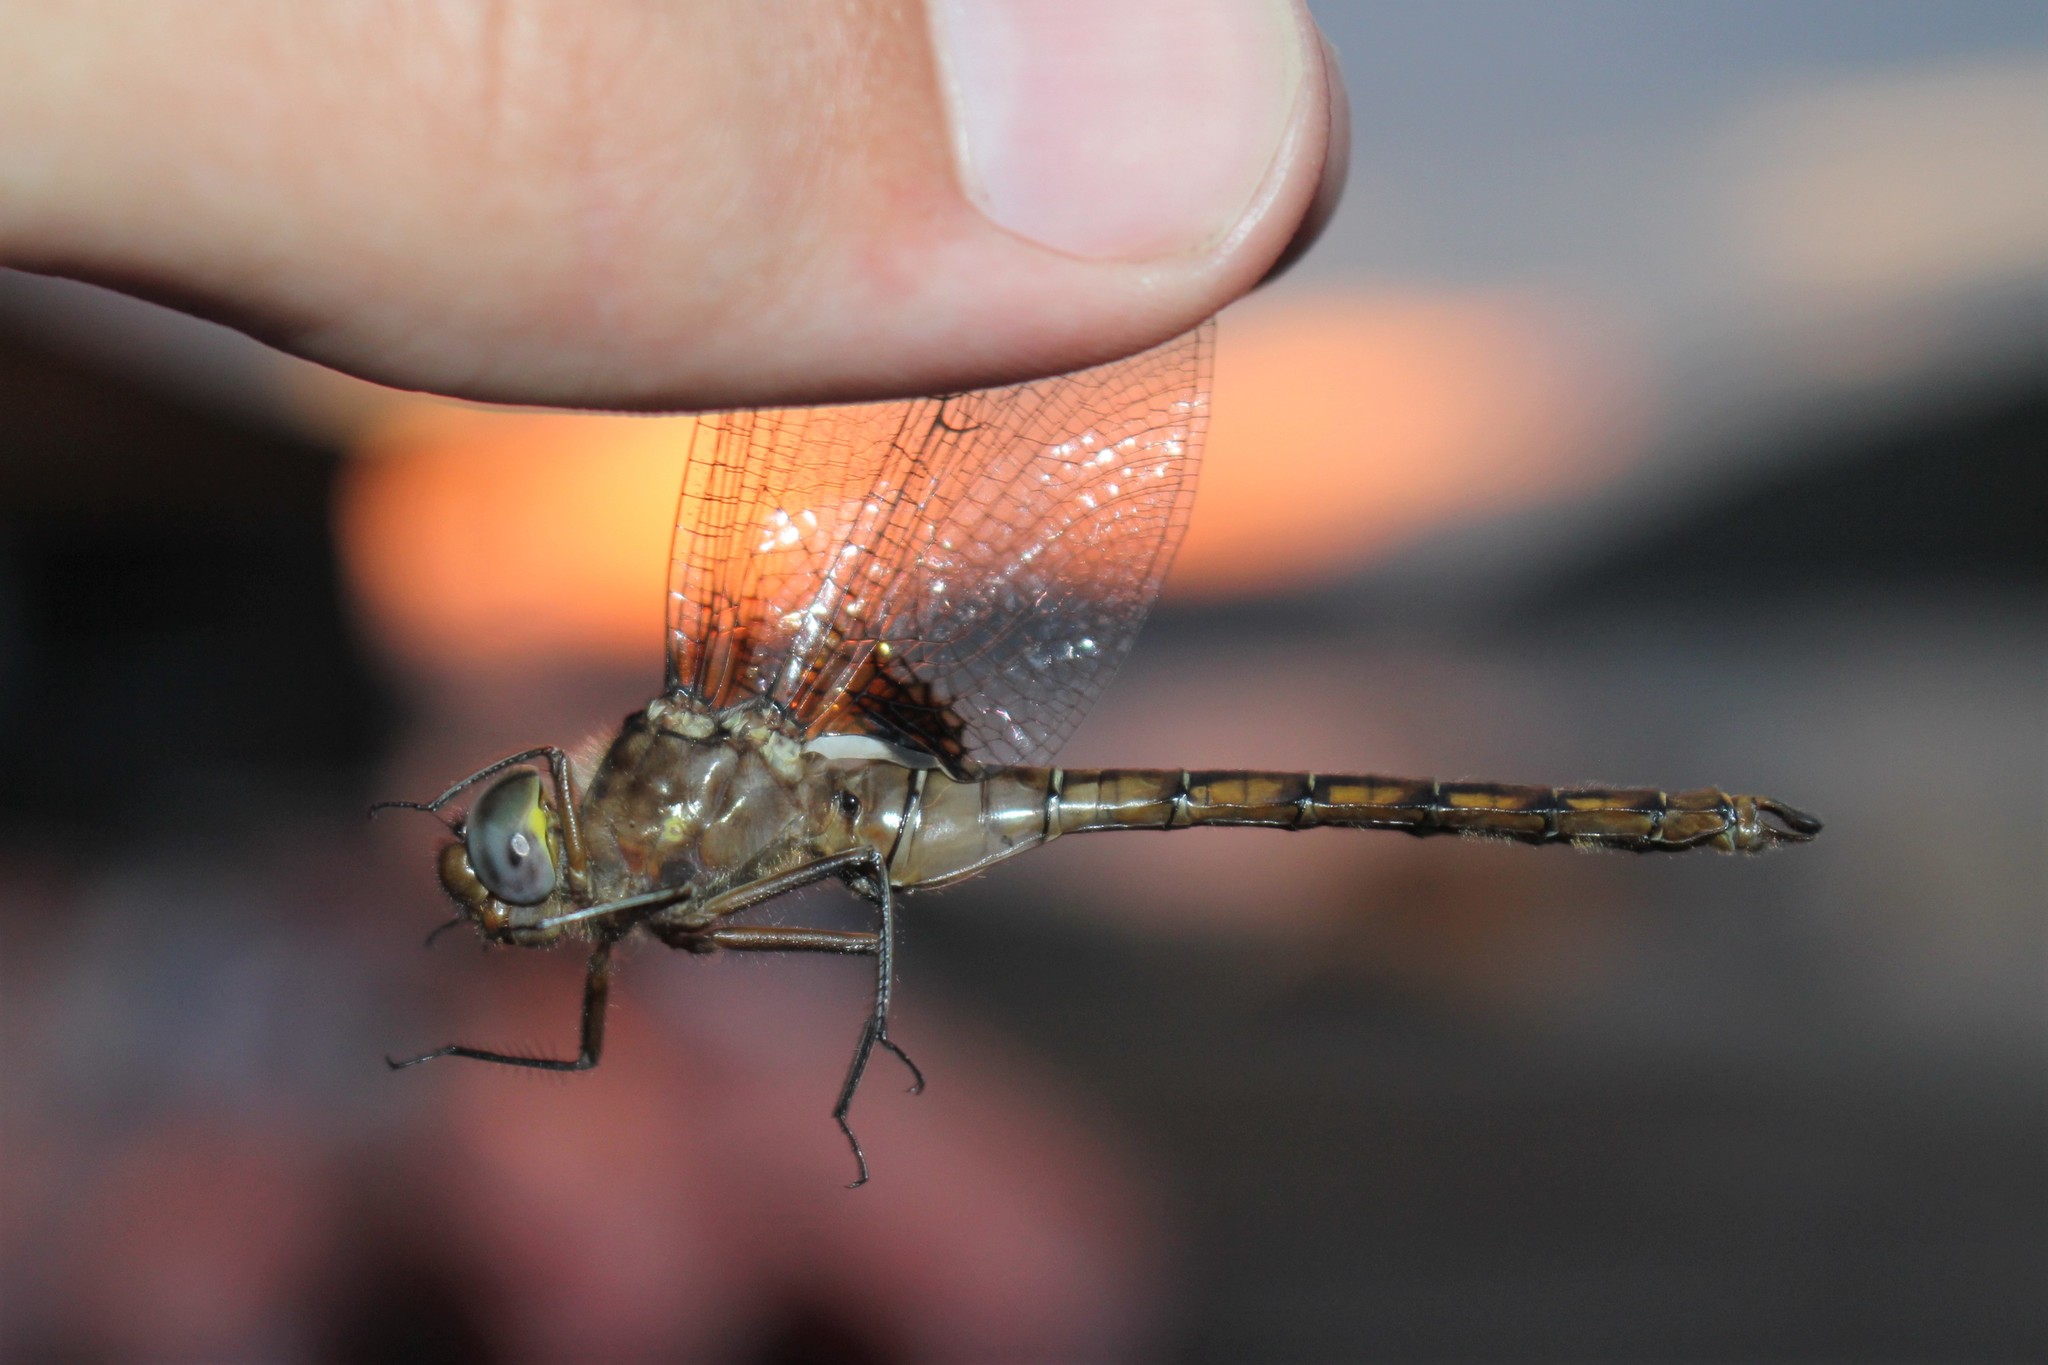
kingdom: Animalia
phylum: Arthropoda
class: Insecta
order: Odonata
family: Corduliidae
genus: Neurocordulia
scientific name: Neurocordulia yamaskanensis
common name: Stygian shadowdragon
